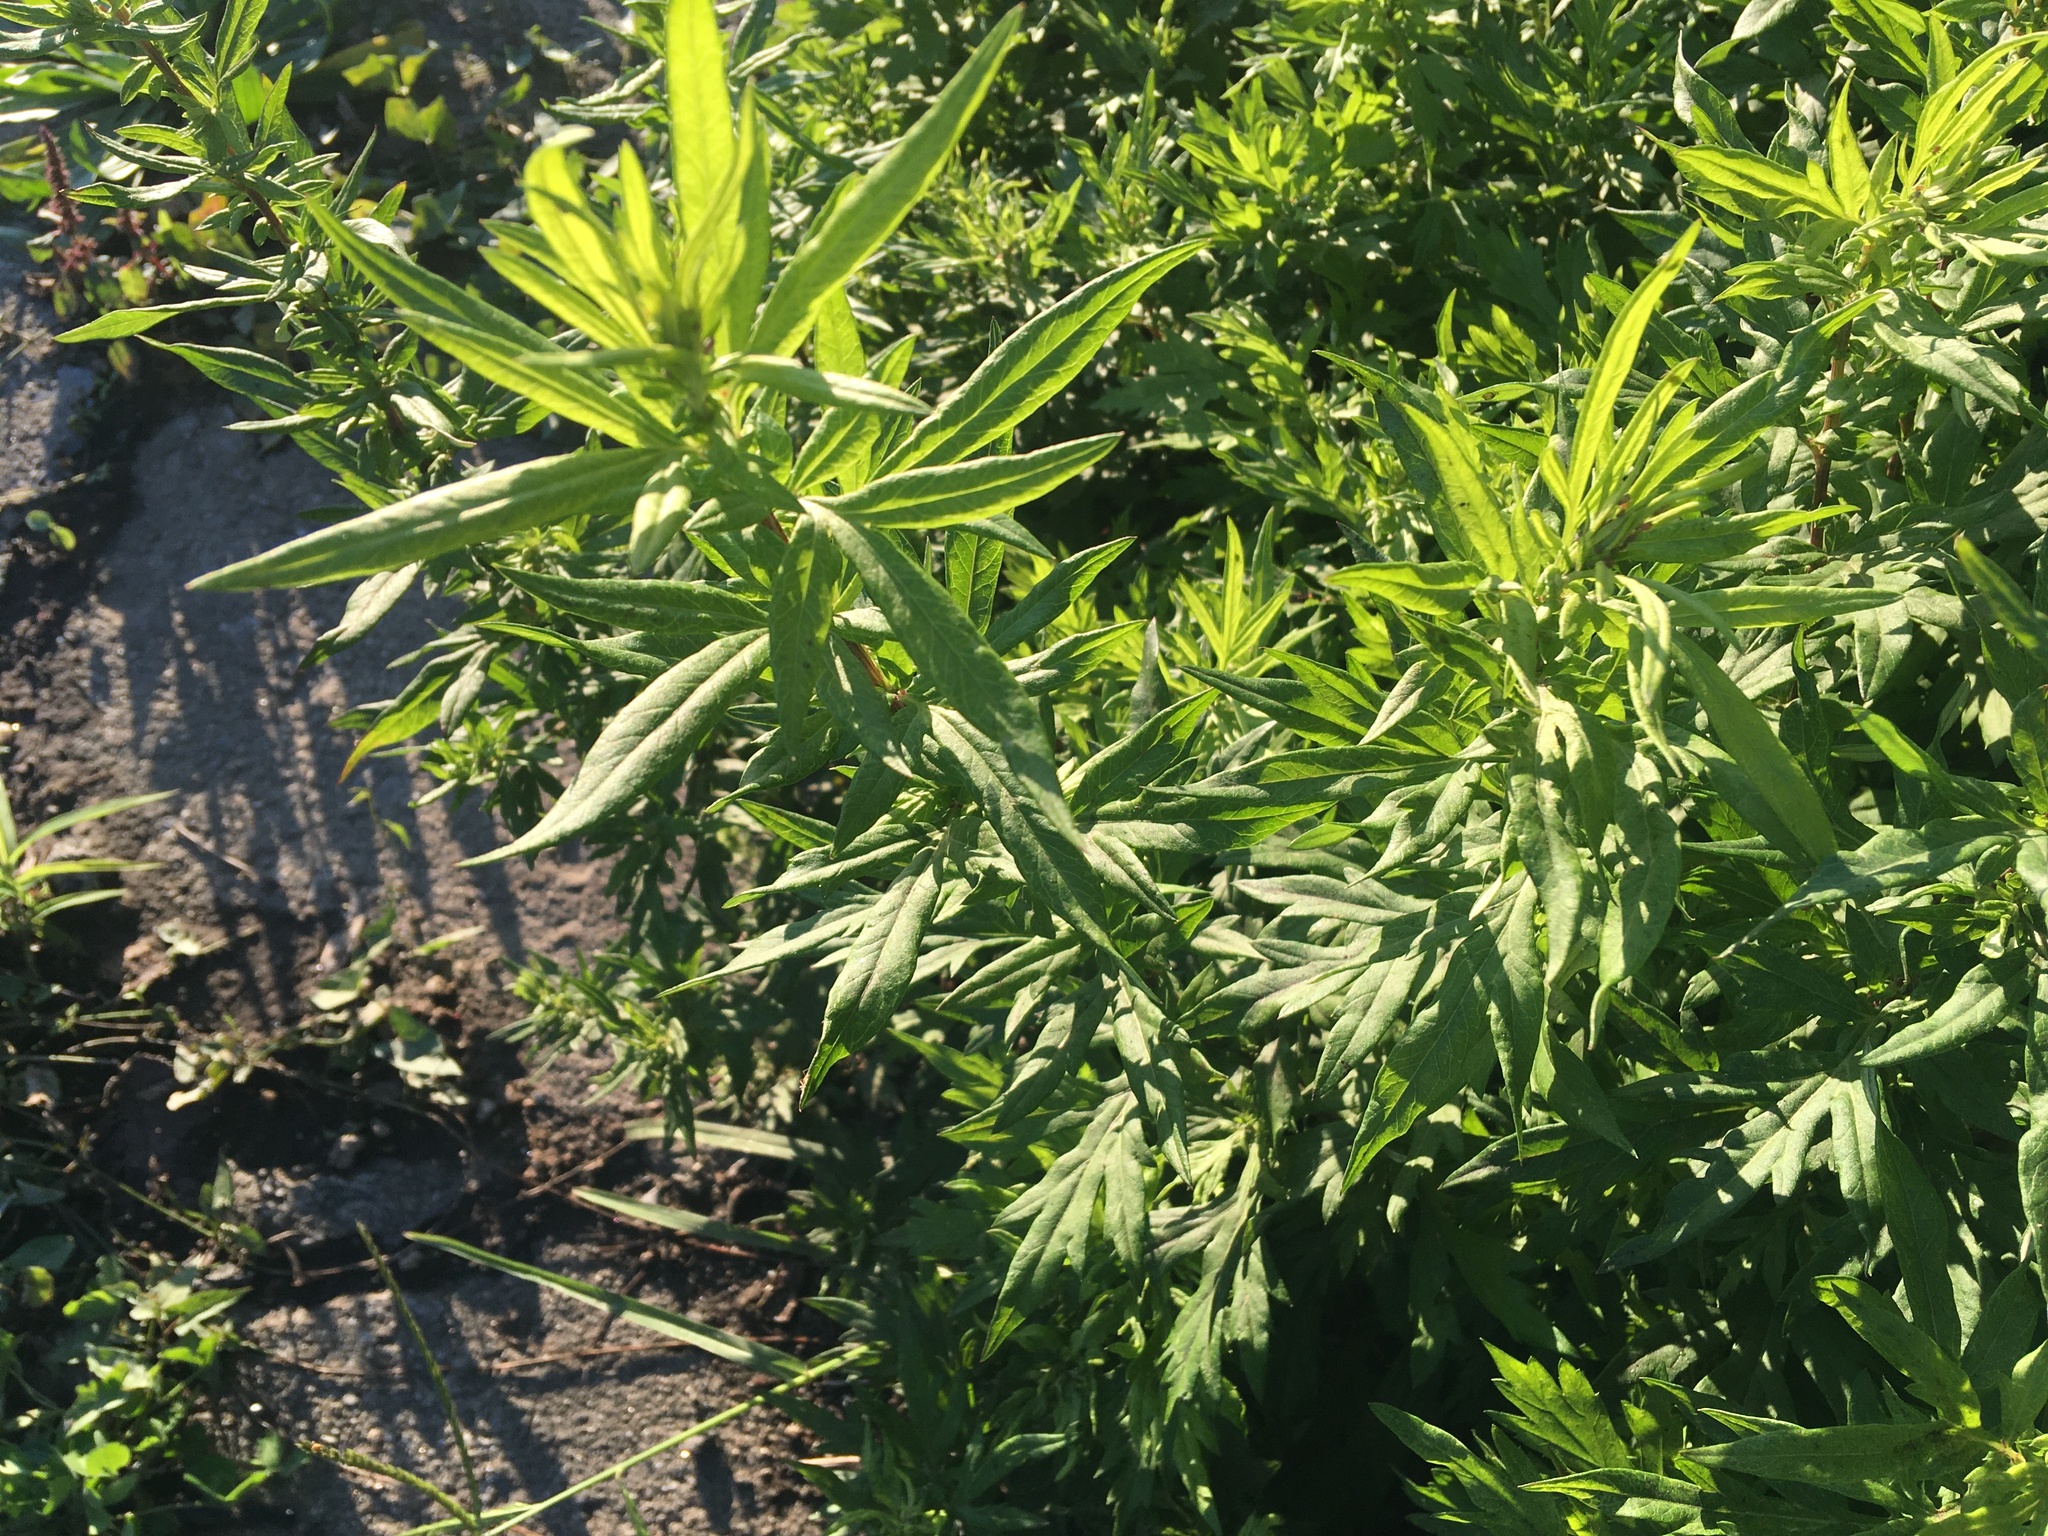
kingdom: Plantae
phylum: Tracheophyta
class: Magnoliopsida
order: Asterales
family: Asteraceae
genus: Artemisia
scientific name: Artemisia vulgaris
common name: Mugwort
